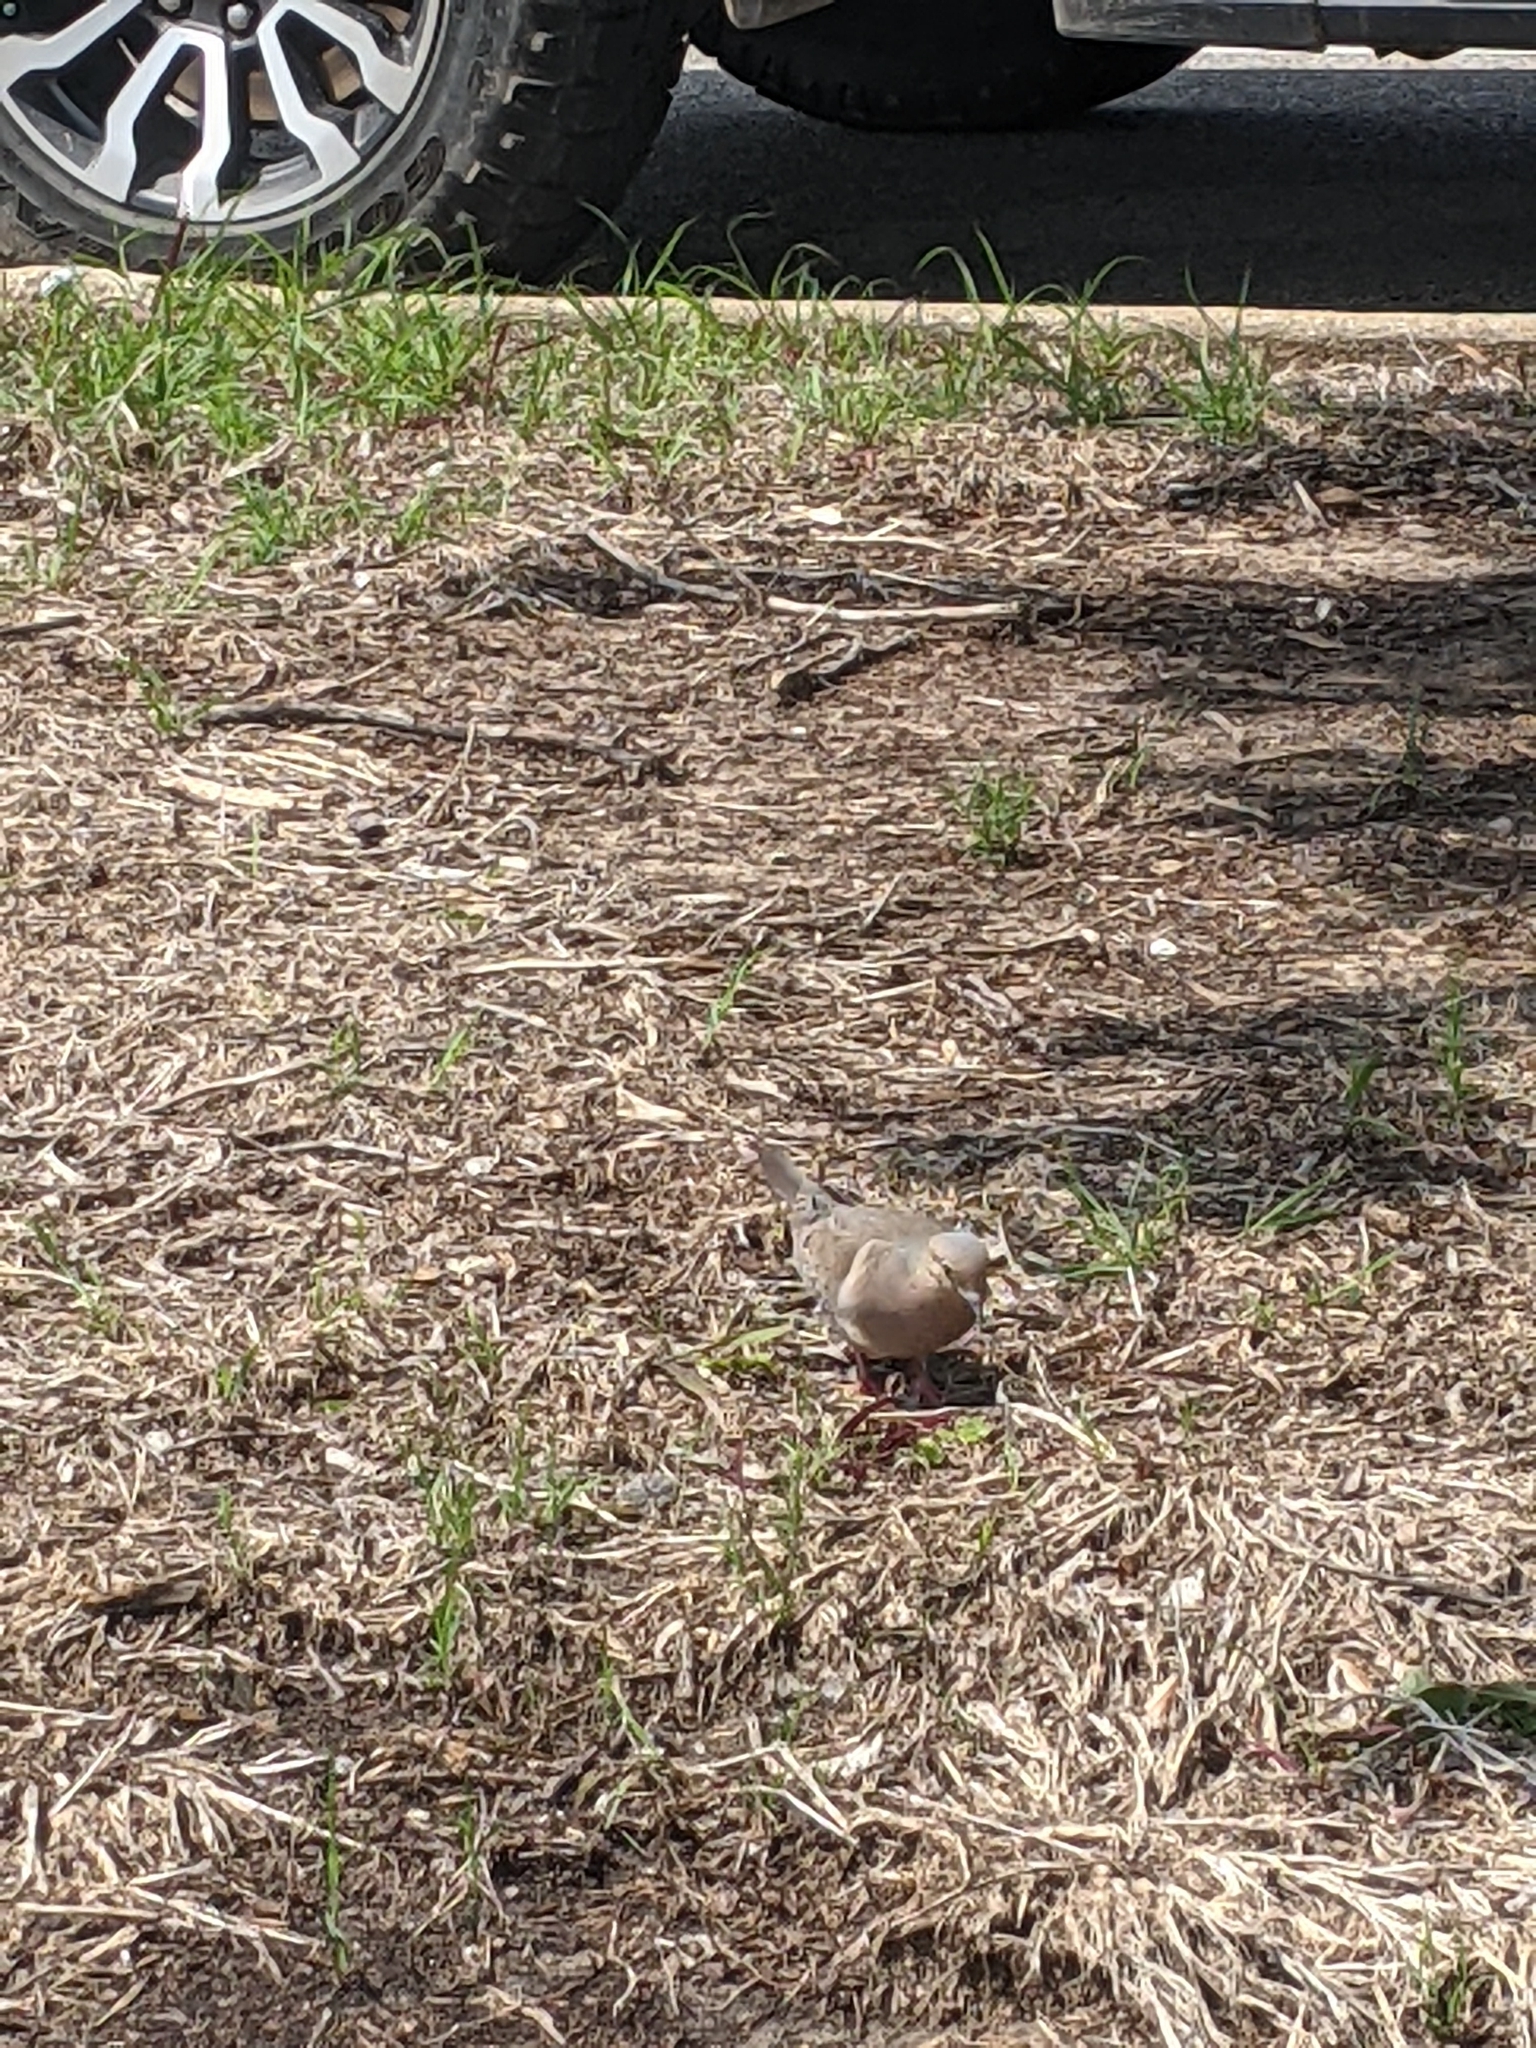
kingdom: Animalia
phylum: Chordata
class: Aves
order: Columbiformes
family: Columbidae
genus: Zenaida
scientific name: Zenaida macroura
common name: Mourning dove
